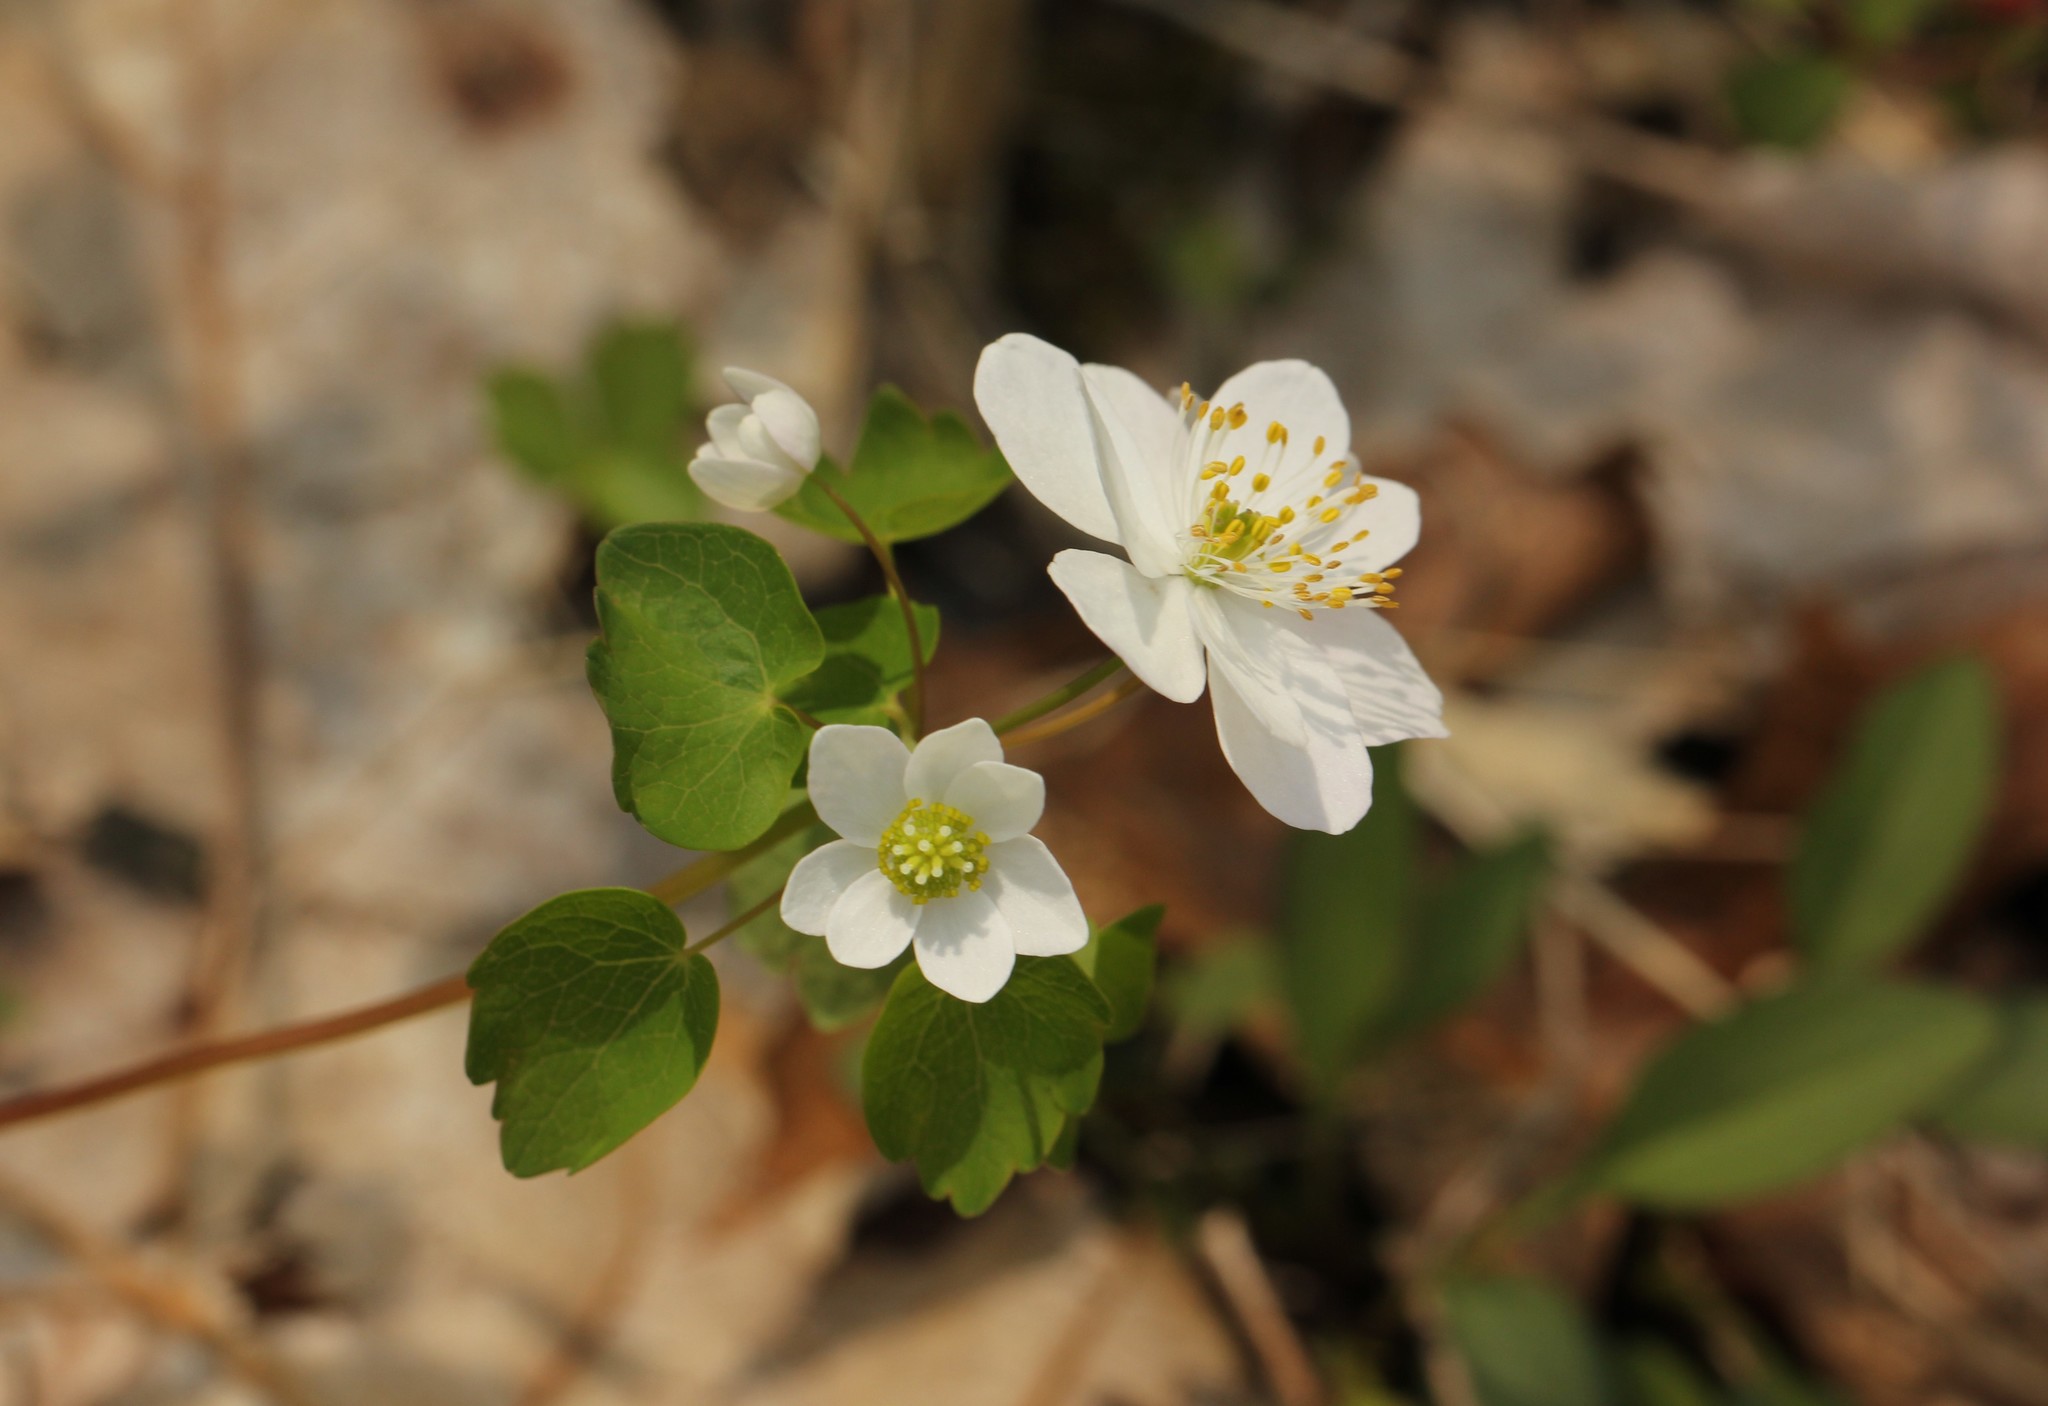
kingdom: Plantae
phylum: Tracheophyta
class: Magnoliopsida
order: Ranunculales
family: Ranunculaceae
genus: Thalictrum
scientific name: Thalictrum thalictroides
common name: Rue-anemone
